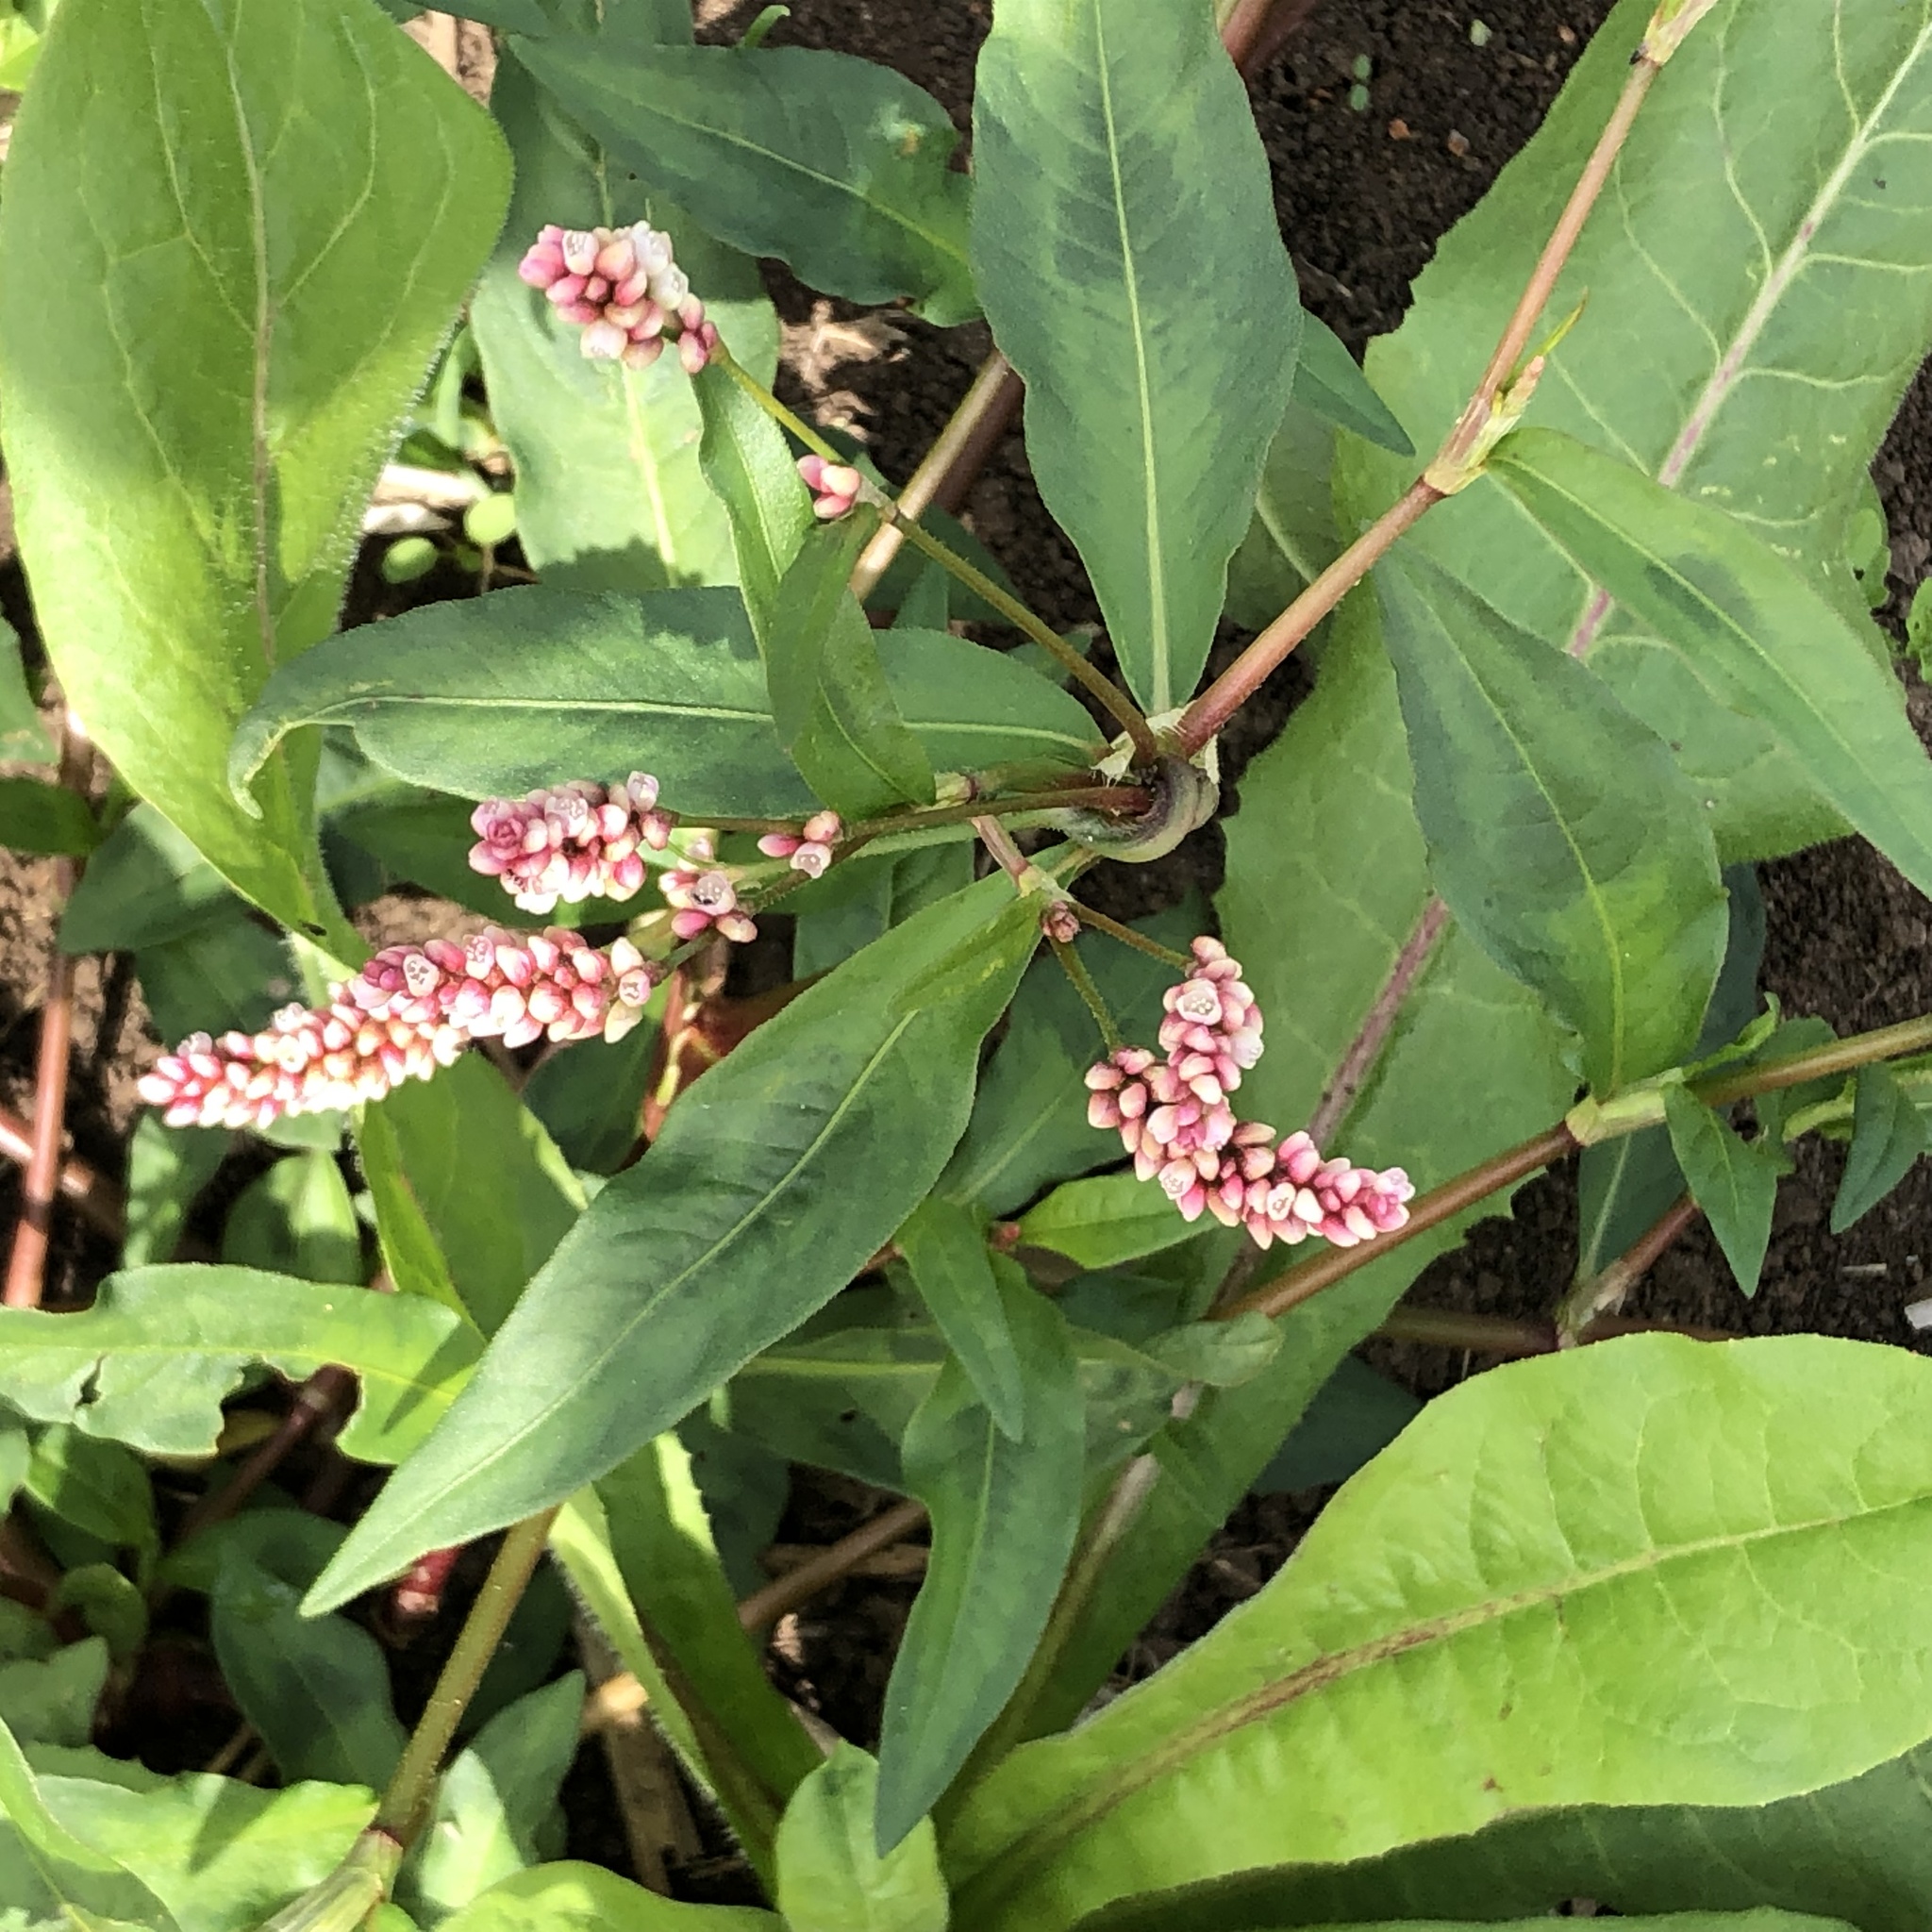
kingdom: Plantae
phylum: Tracheophyta
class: Magnoliopsida
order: Caryophyllales
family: Polygonaceae
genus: Persicaria
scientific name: Persicaria maculosa
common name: Redshank
